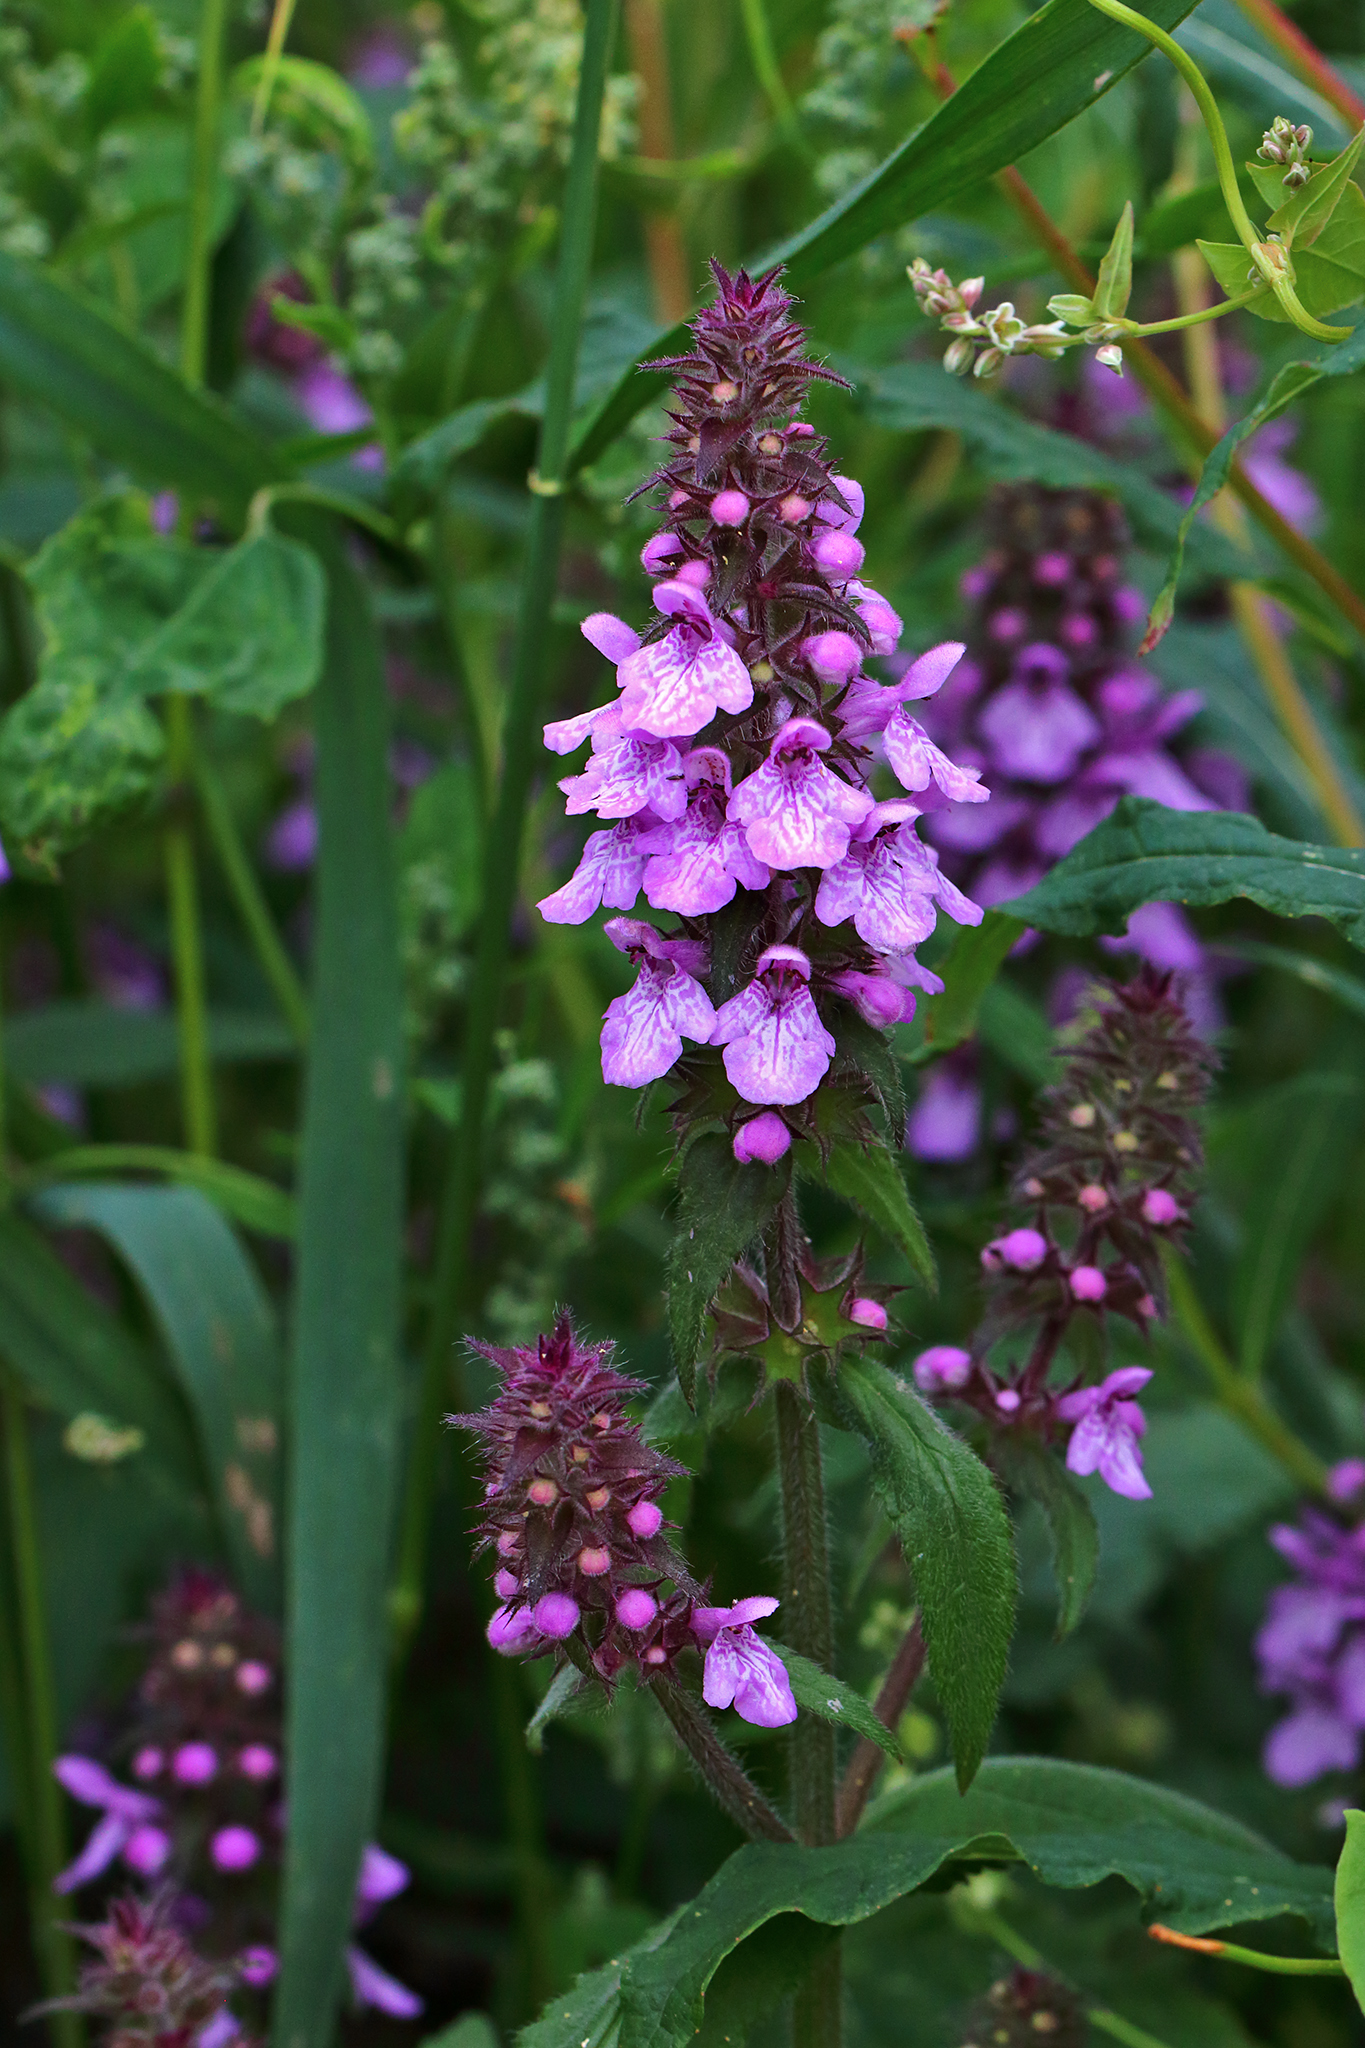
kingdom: Plantae
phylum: Tracheophyta
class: Magnoliopsida
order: Lamiales
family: Lamiaceae
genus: Stachys
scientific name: Stachys palustris
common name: Marsh woundwort
